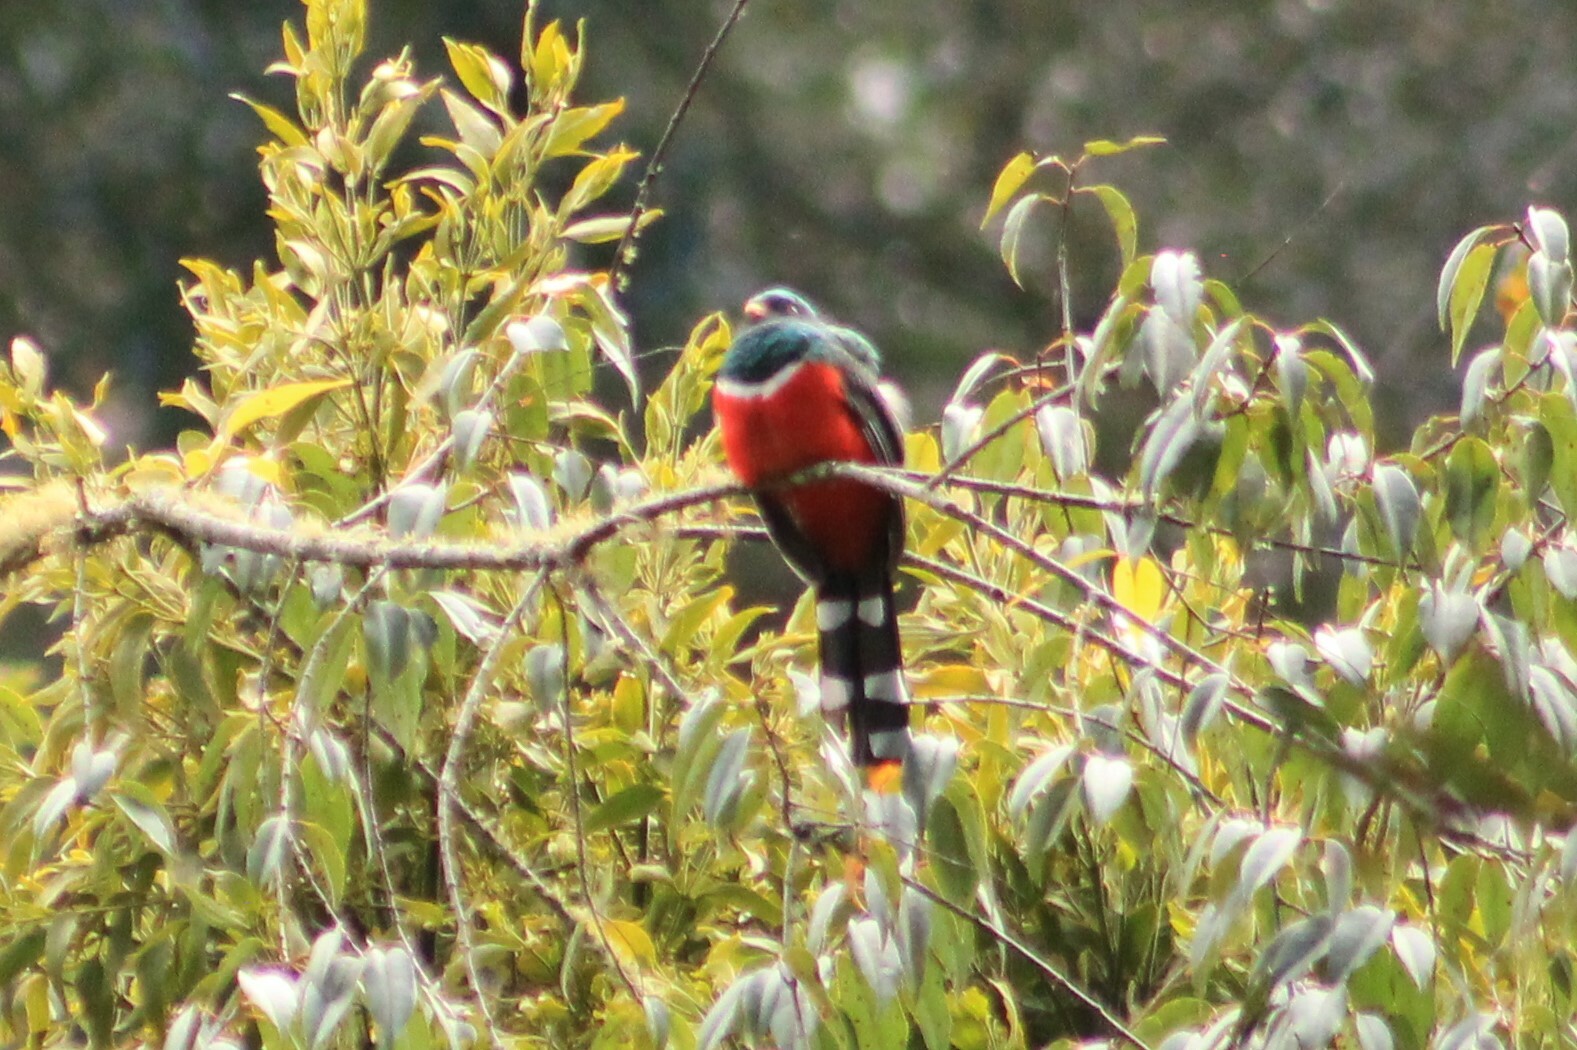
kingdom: Animalia
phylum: Chordata
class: Aves
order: Trogoniformes
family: Trogonidae
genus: Trogon
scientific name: Trogon mexicanus
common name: Mountain trogon
